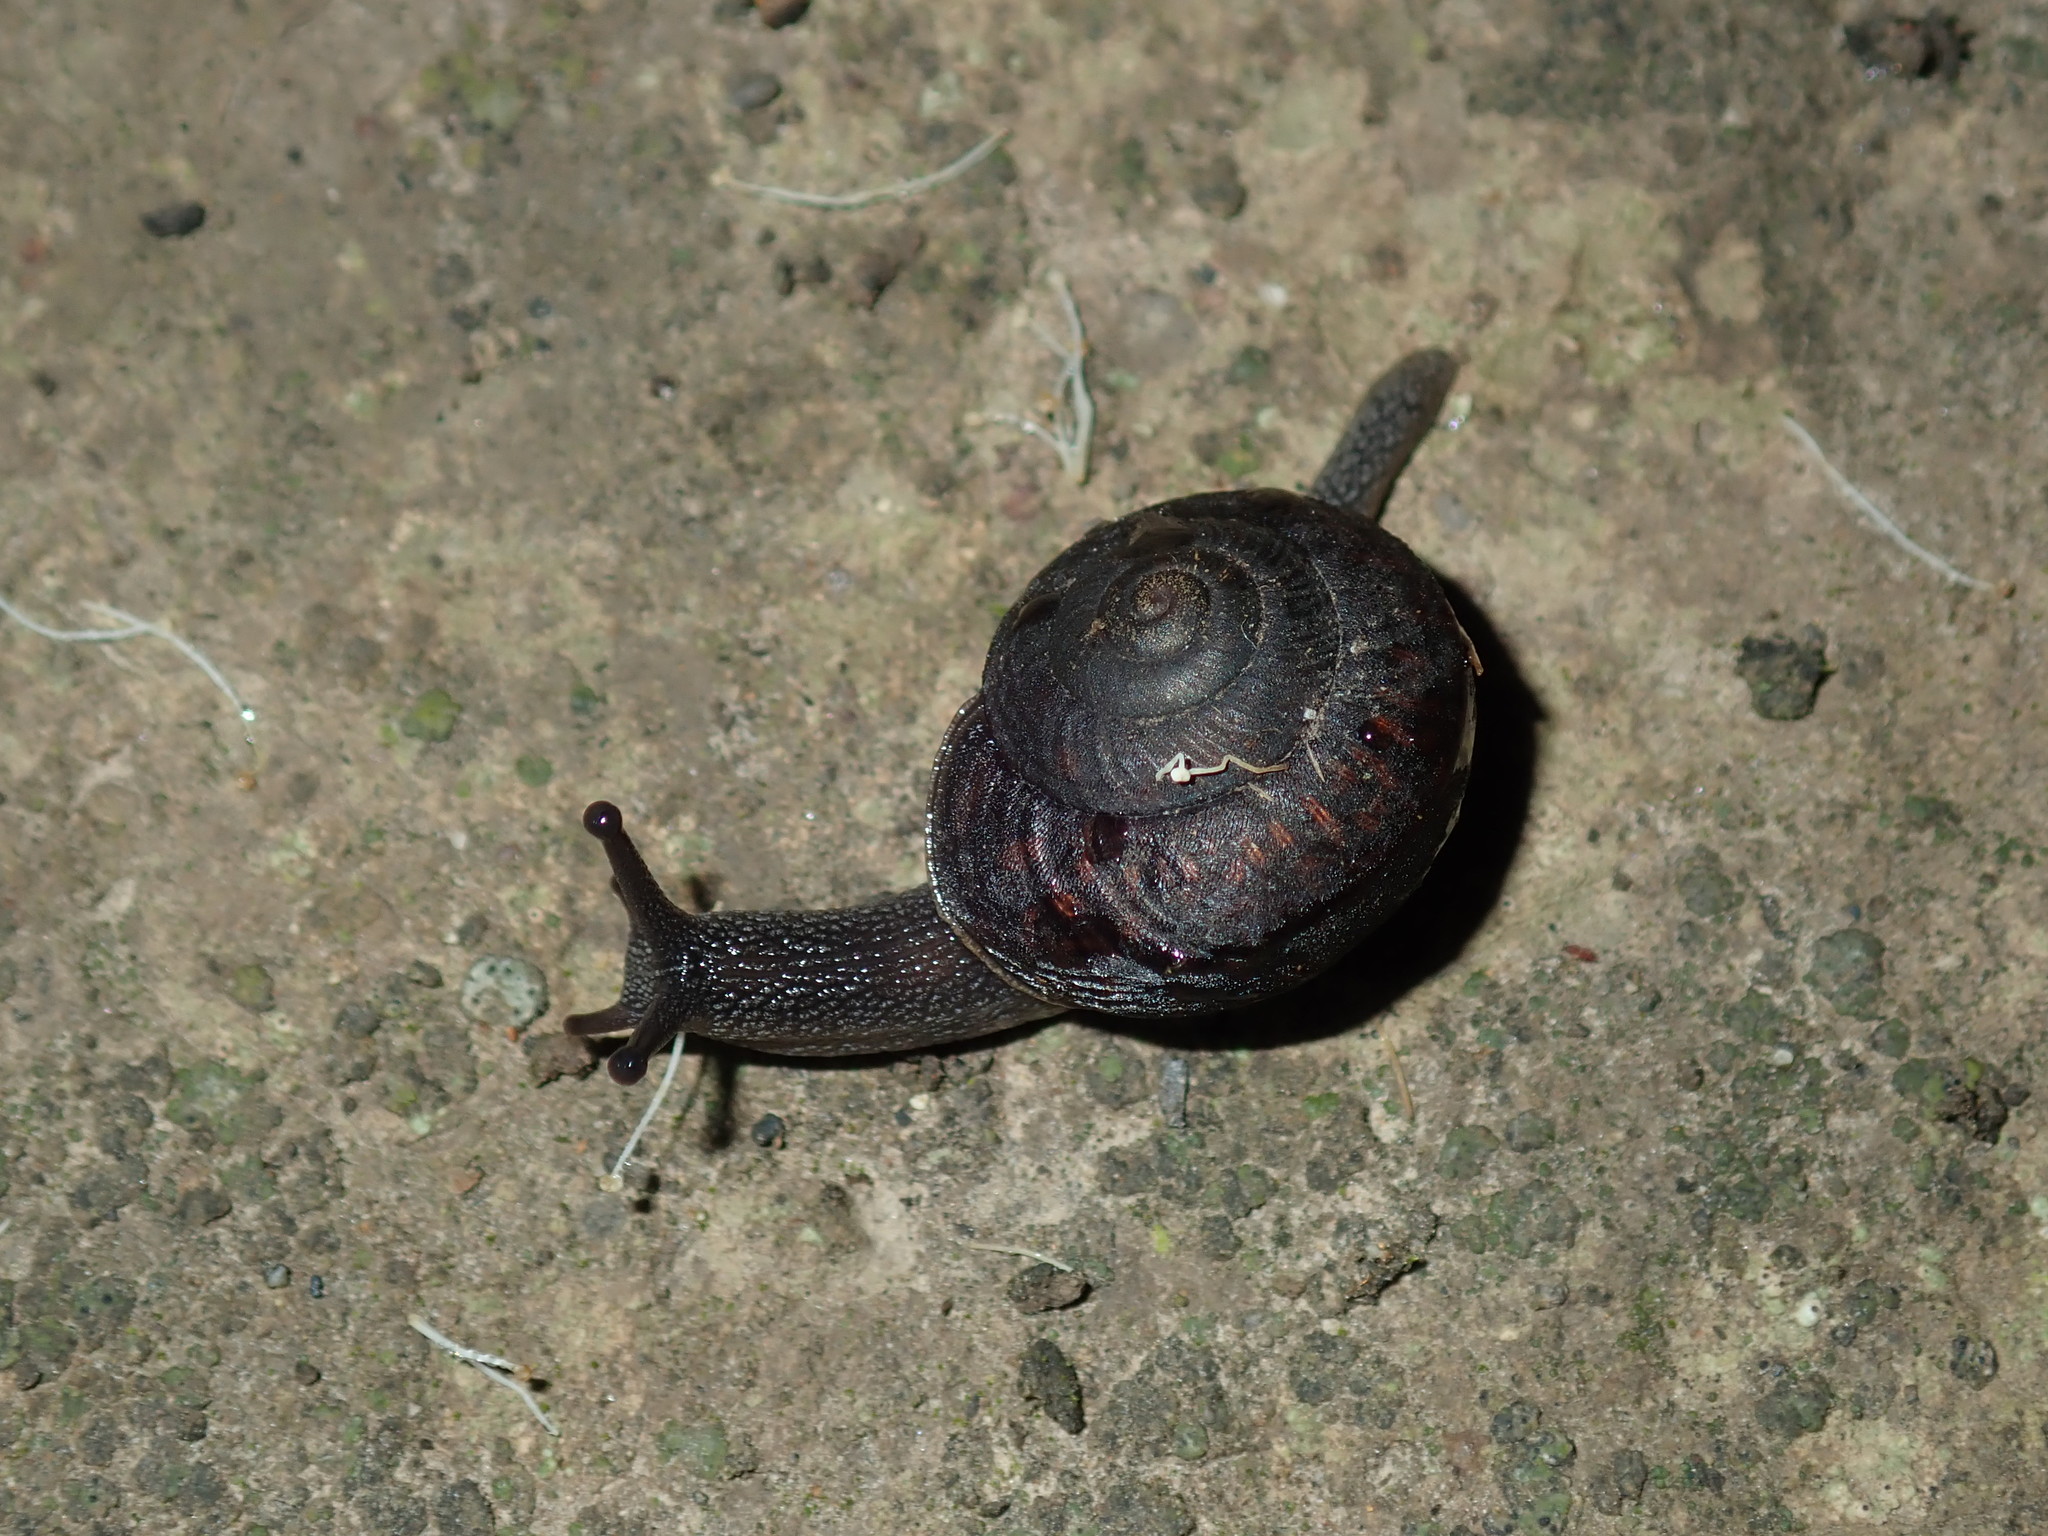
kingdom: Animalia
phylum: Mollusca
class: Gastropoda
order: Stylommatophora
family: Camaenidae
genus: Sauroconcha
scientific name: Sauroconcha sheai
